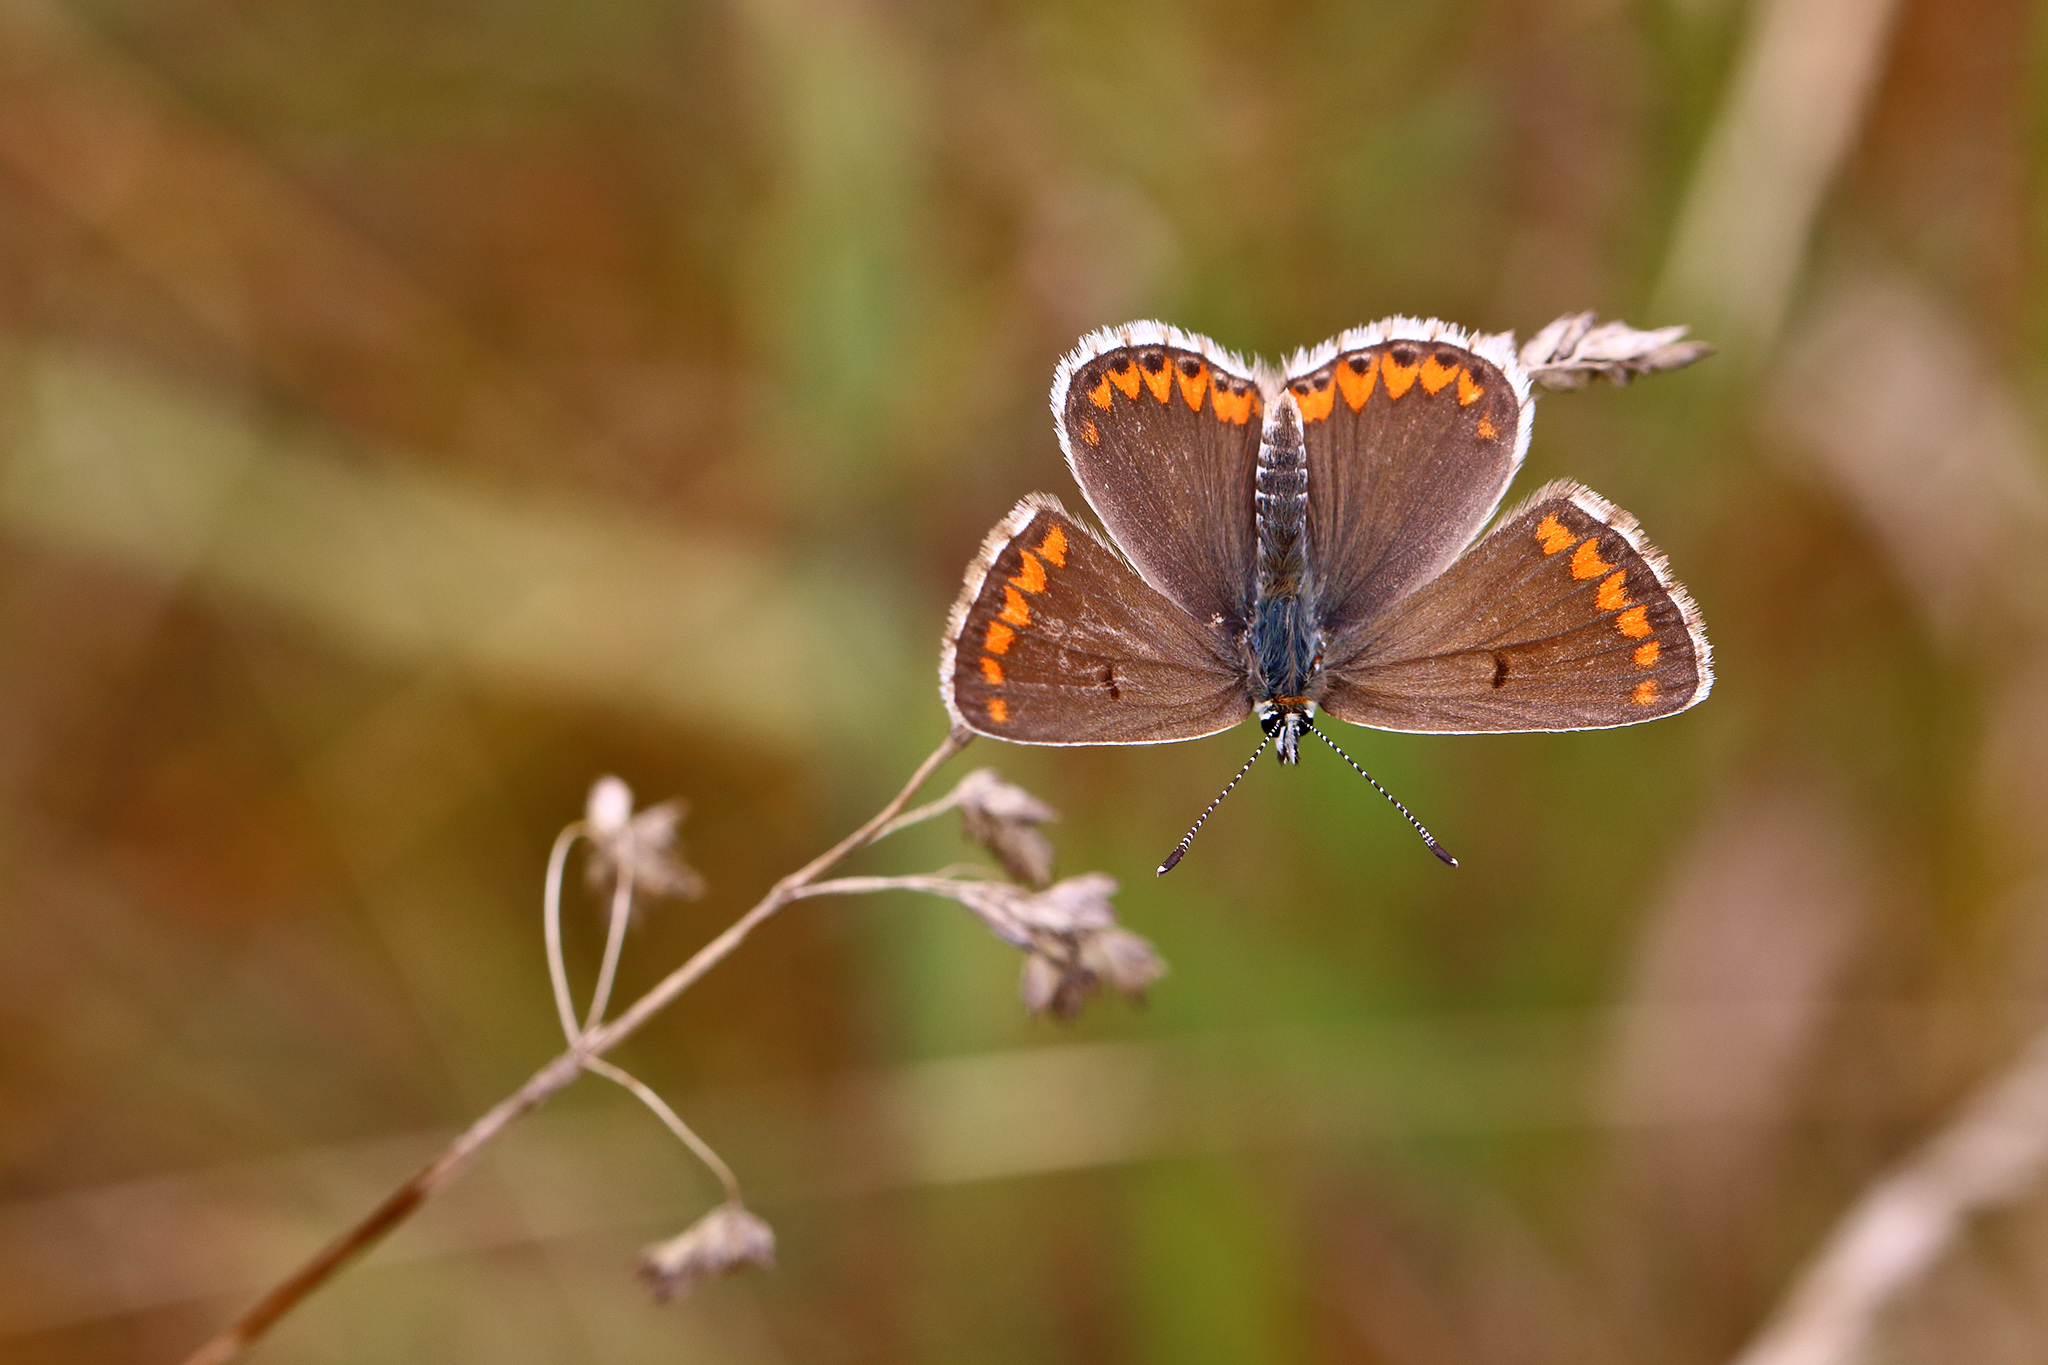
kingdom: Animalia
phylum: Arthropoda
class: Insecta
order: Lepidoptera
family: Lycaenidae
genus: Aricia
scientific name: Aricia agestis
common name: Brown argus
